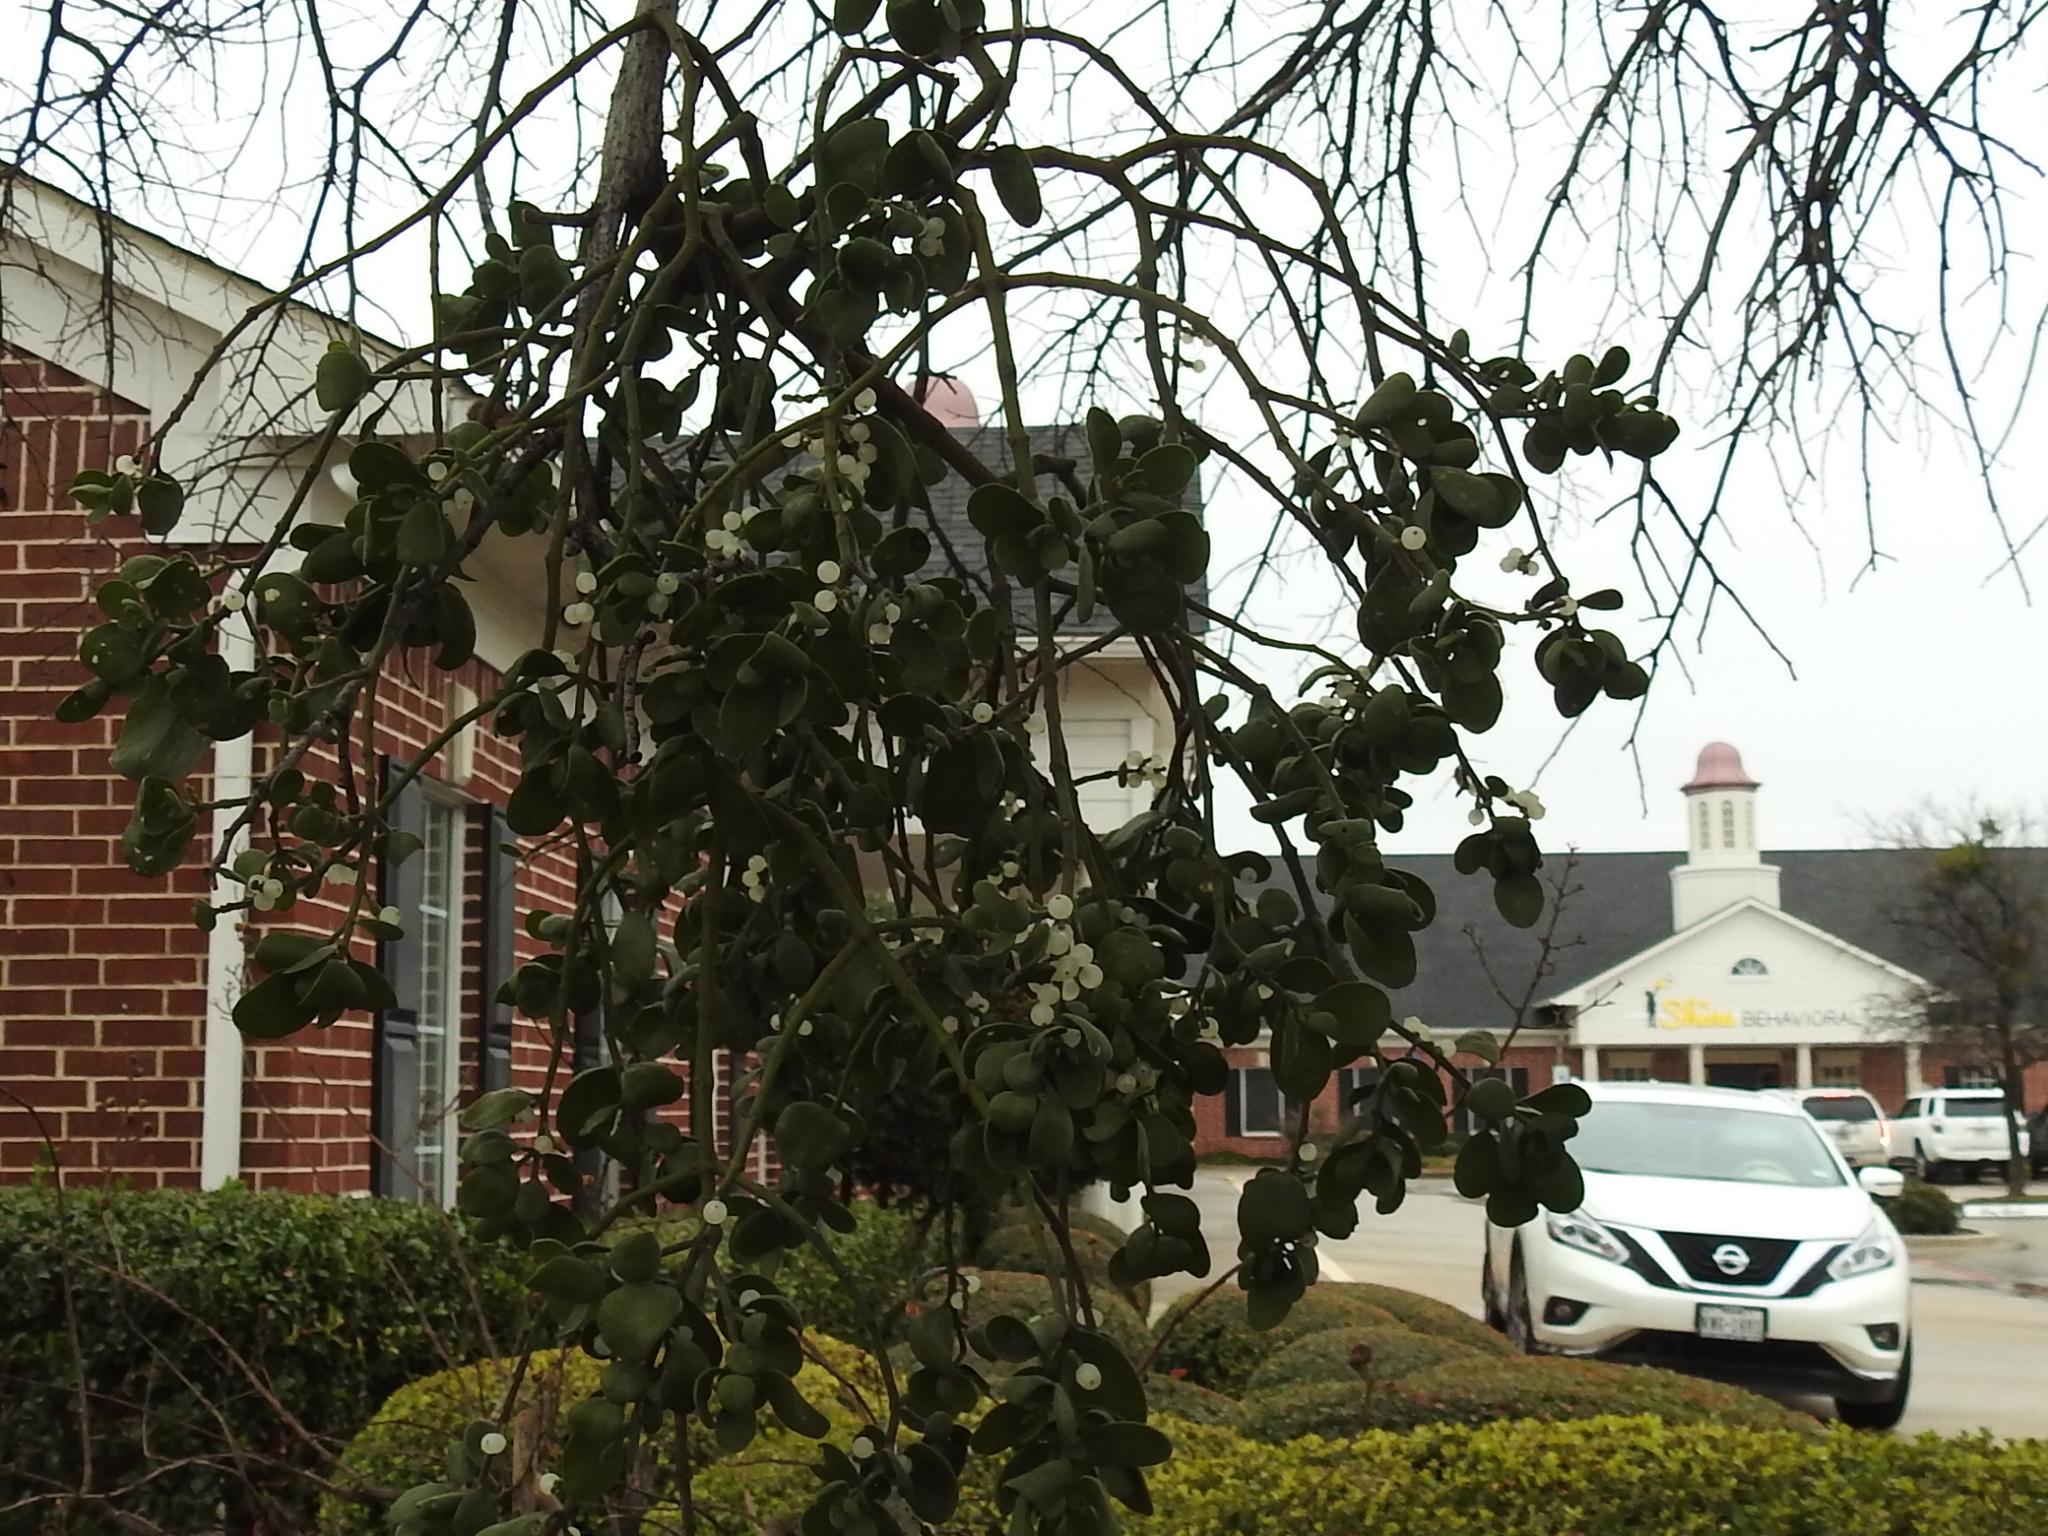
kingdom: Plantae
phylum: Tracheophyta
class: Magnoliopsida
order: Santalales
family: Viscaceae
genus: Phoradendron
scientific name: Phoradendron leucarpum
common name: Pacific mistletoe
